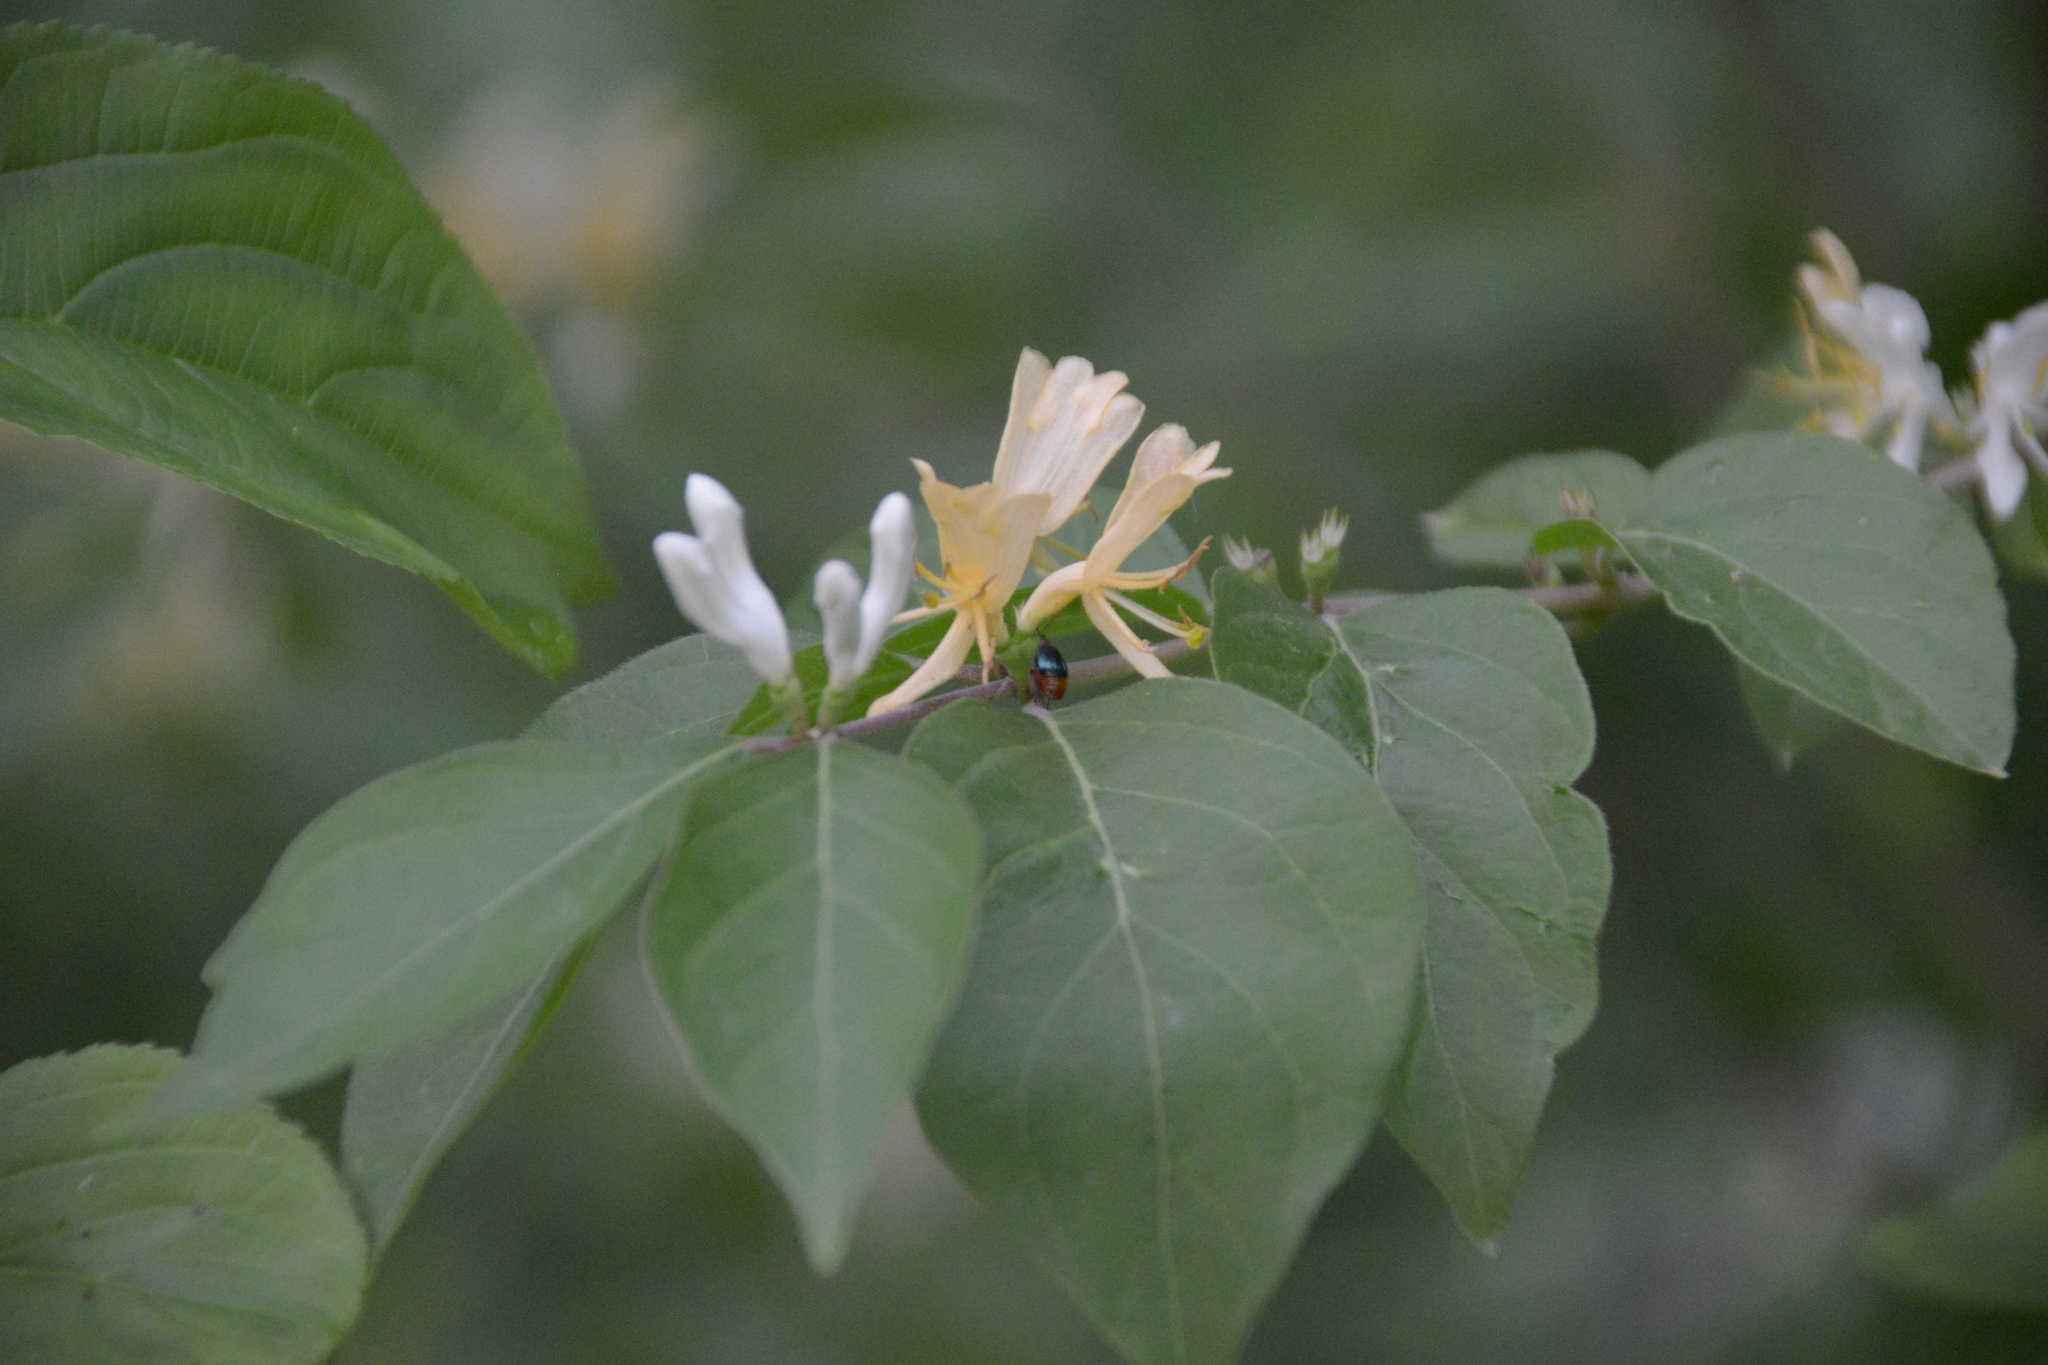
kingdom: Plantae
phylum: Tracheophyta
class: Magnoliopsida
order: Dipsacales
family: Caprifoliaceae
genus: Lonicera
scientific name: Lonicera maackii
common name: Amur honeysuckle
